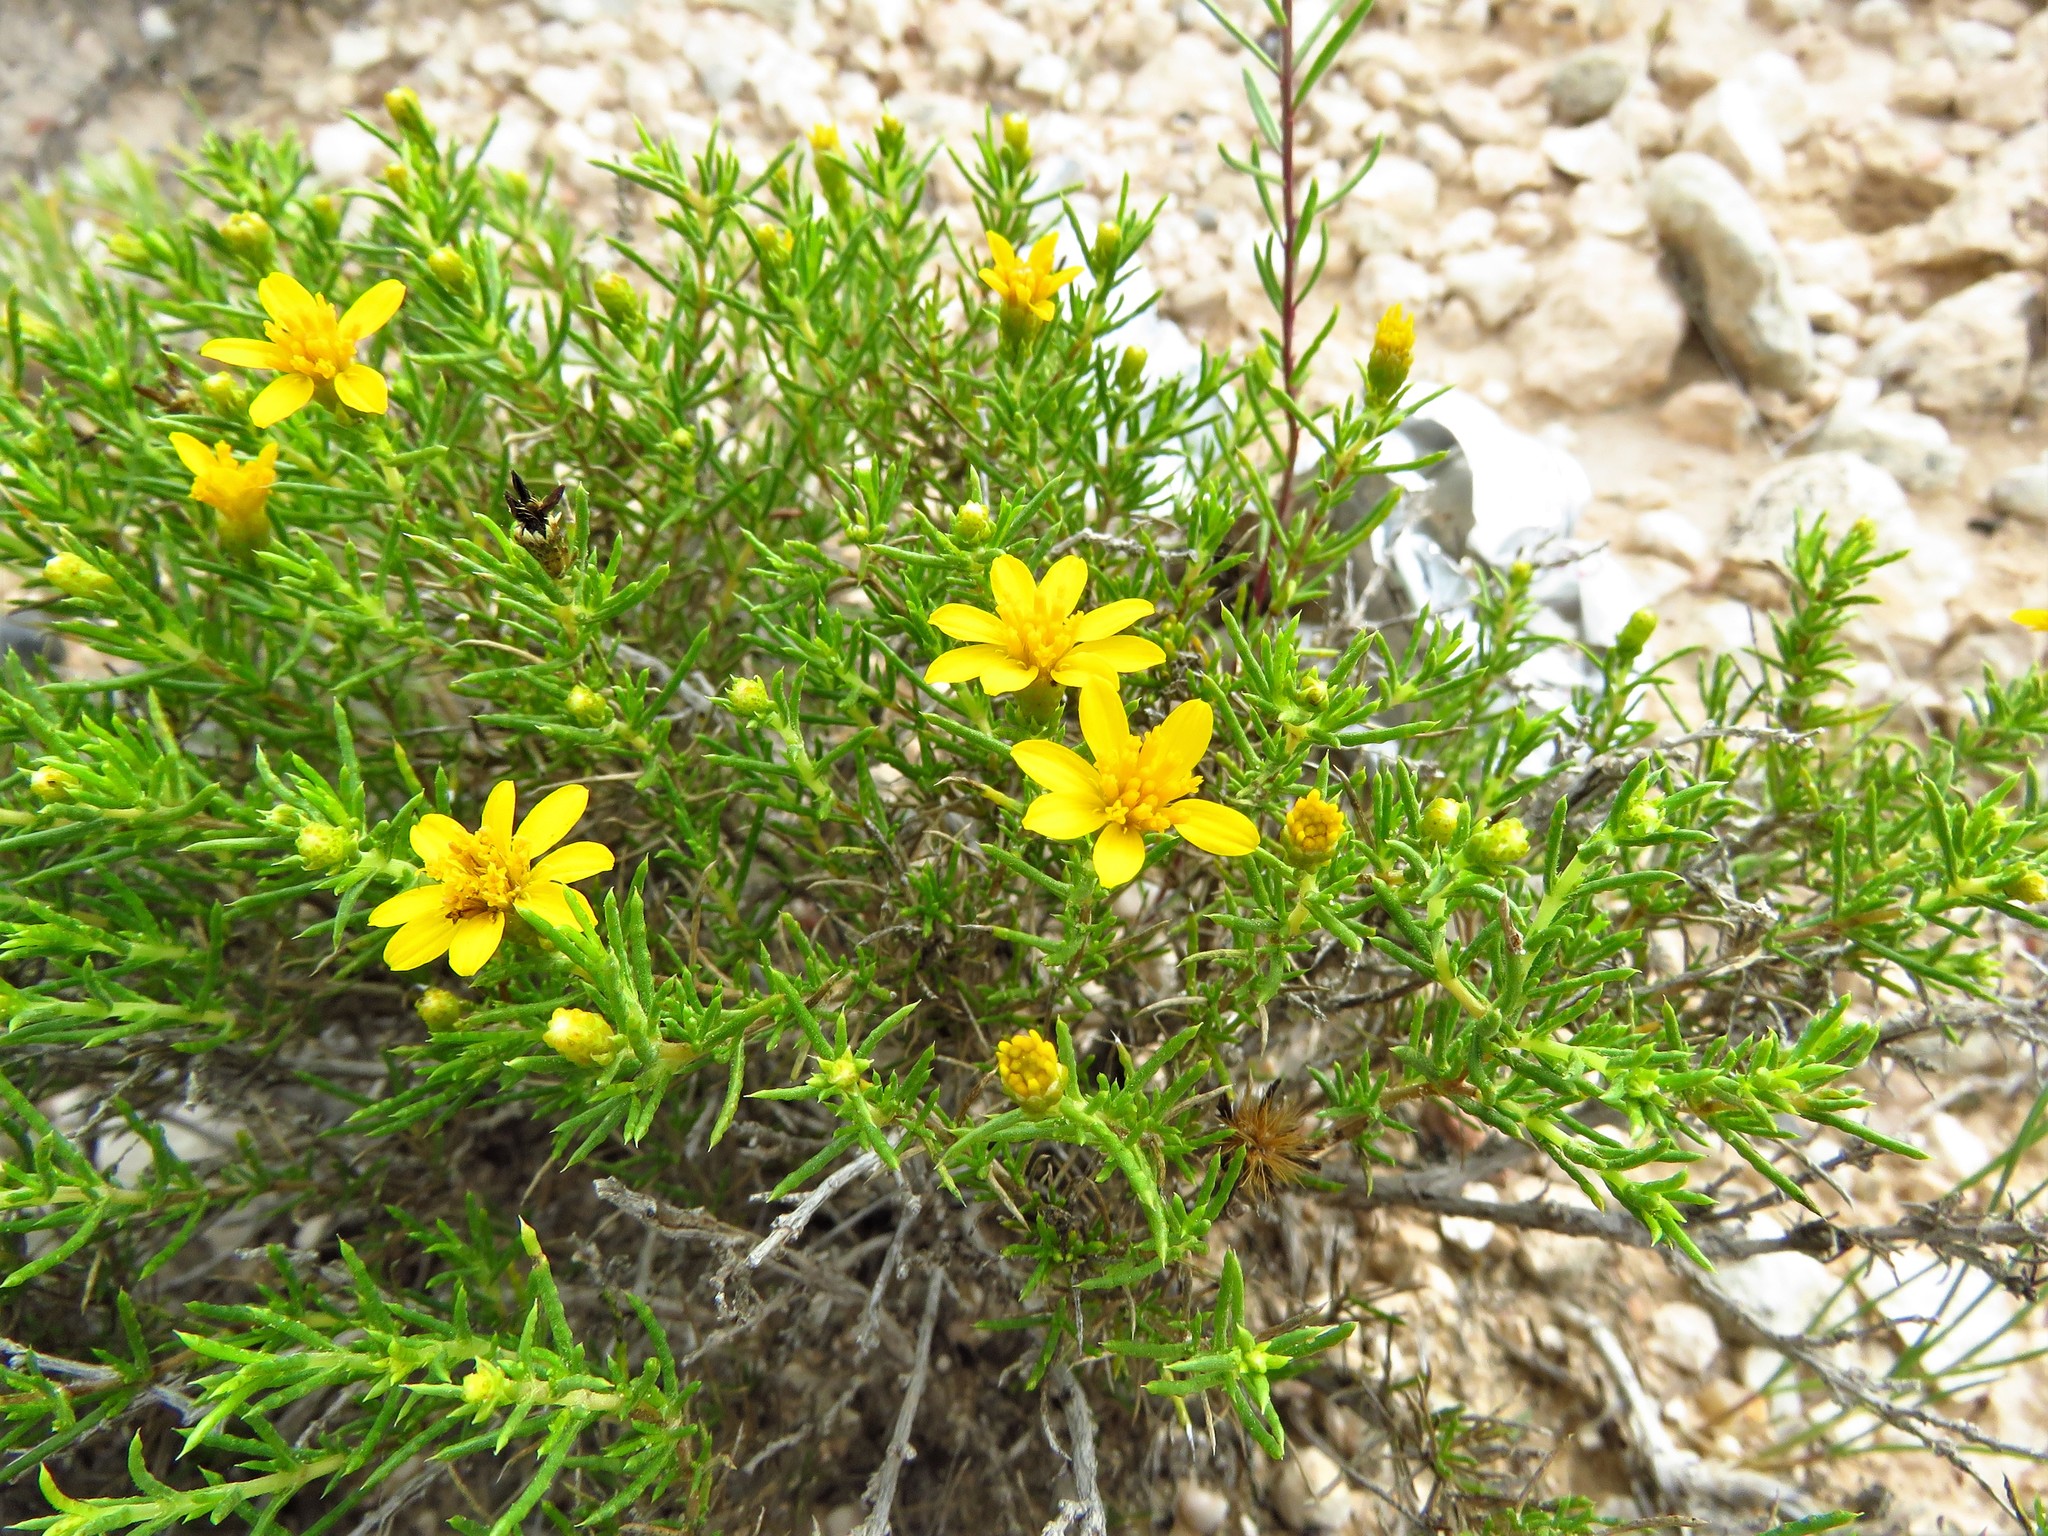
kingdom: Plantae
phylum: Tracheophyta
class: Magnoliopsida
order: Asterales
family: Asteraceae
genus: Thymophylla
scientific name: Thymophylla acerosa
